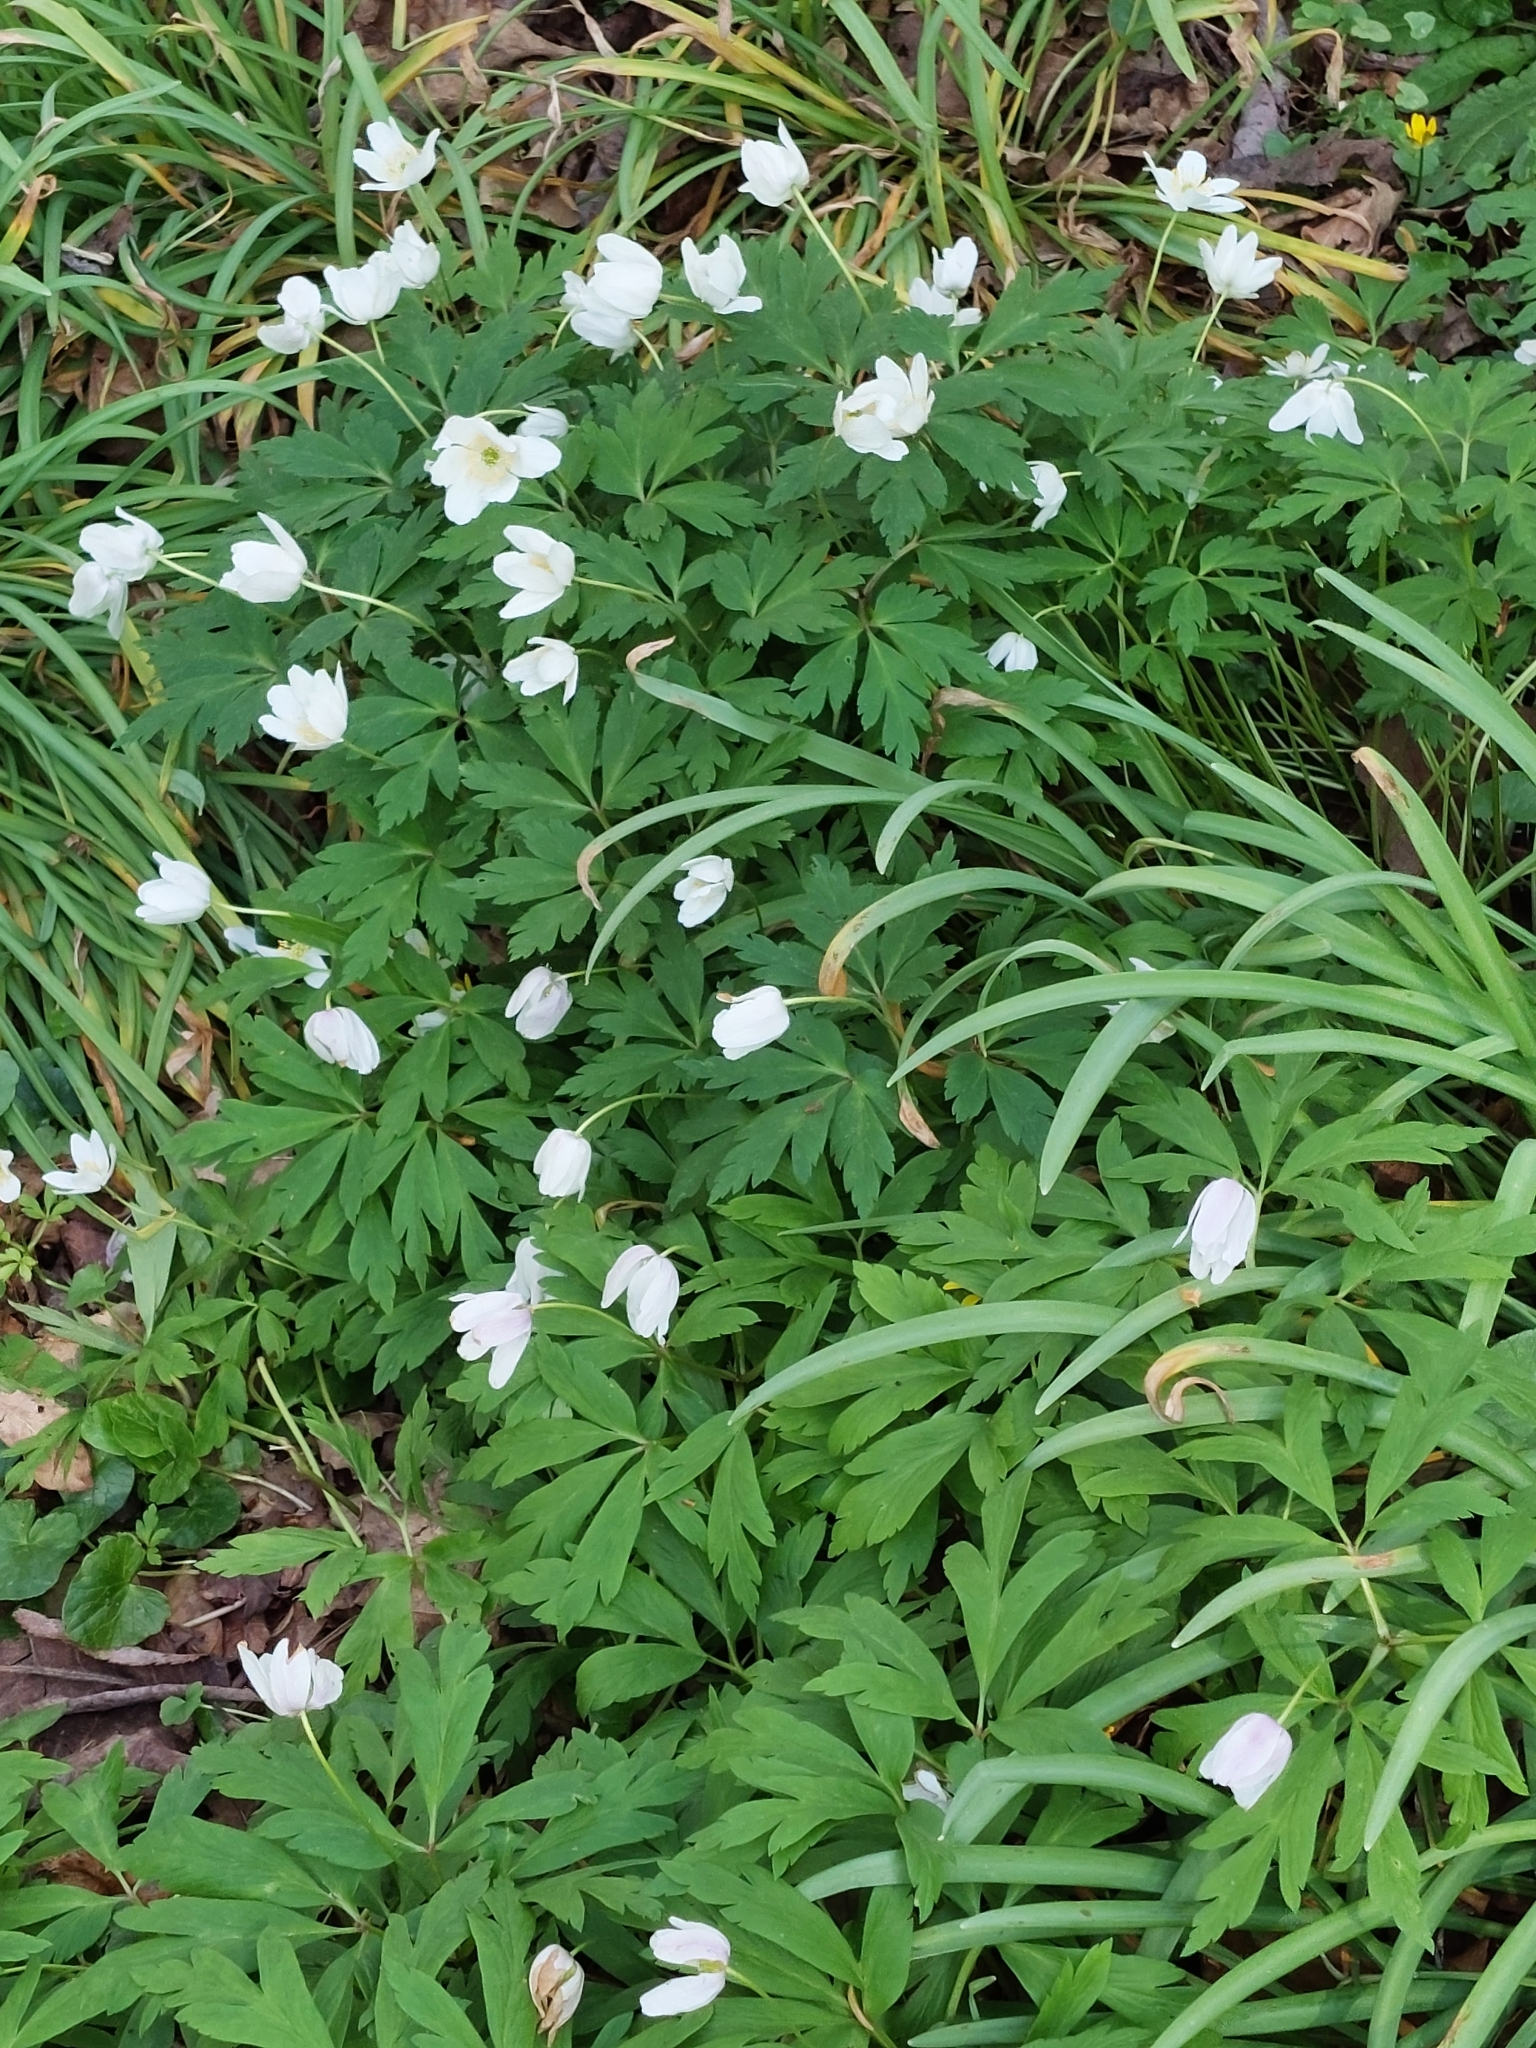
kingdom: Plantae
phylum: Tracheophyta
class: Magnoliopsida
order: Ranunculales
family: Ranunculaceae
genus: Anemone
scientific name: Anemone nemorosa
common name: Wood anemone
